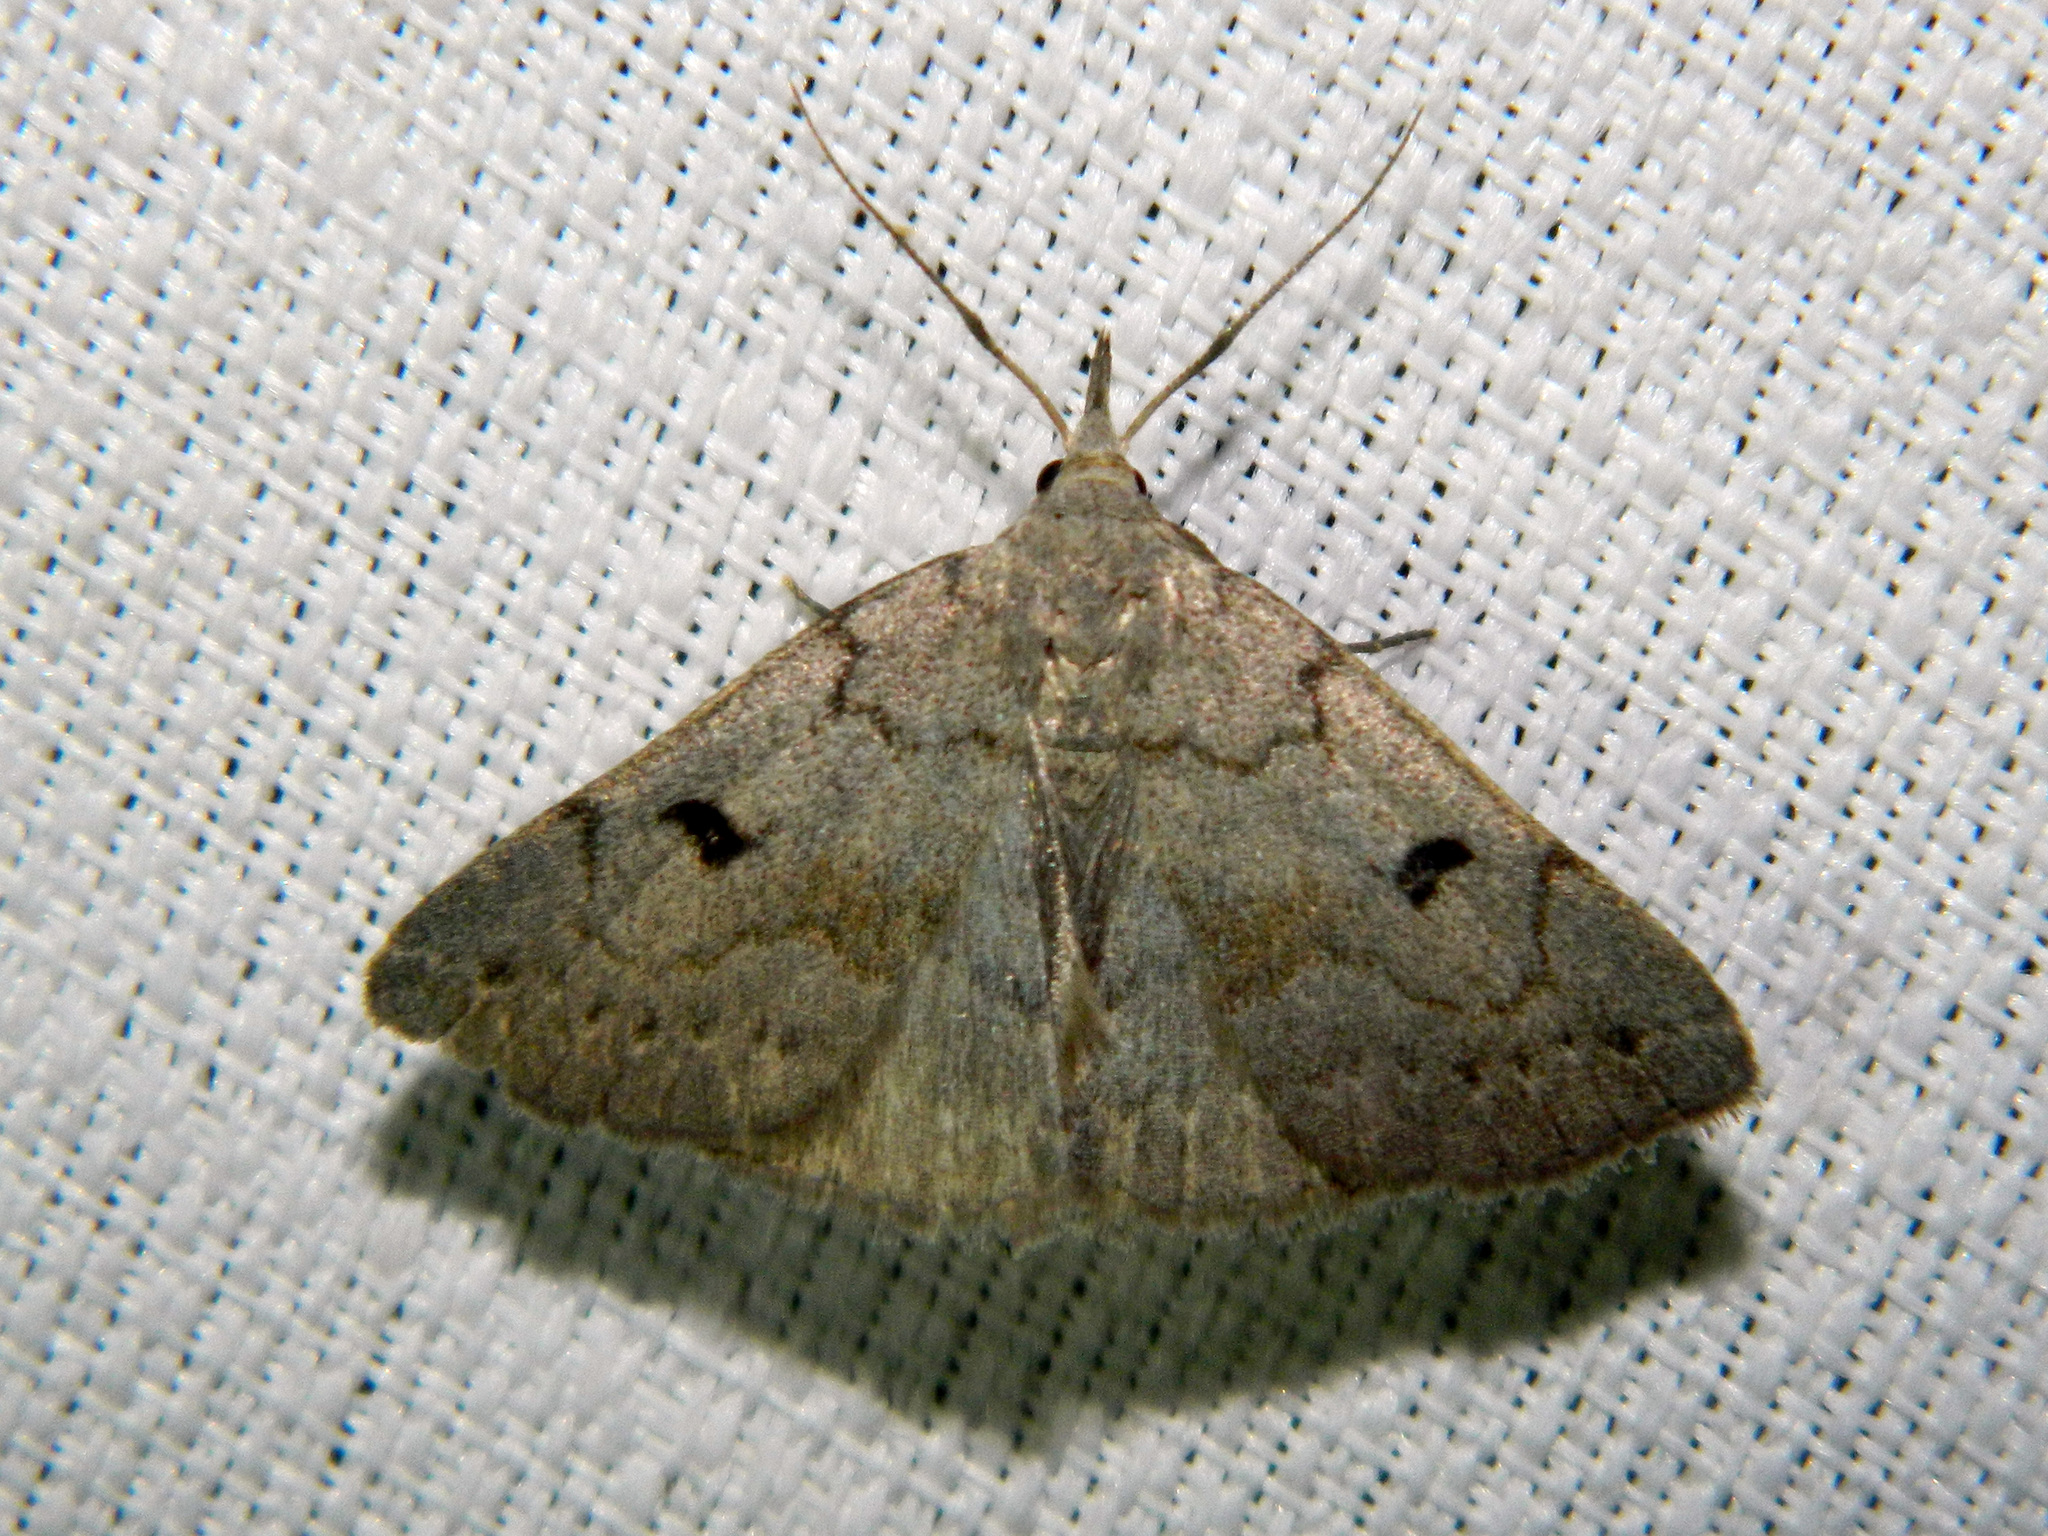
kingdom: Animalia
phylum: Arthropoda
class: Insecta
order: Lepidoptera
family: Erebidae
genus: Macrochilo
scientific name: Macrochilo morbidalis
